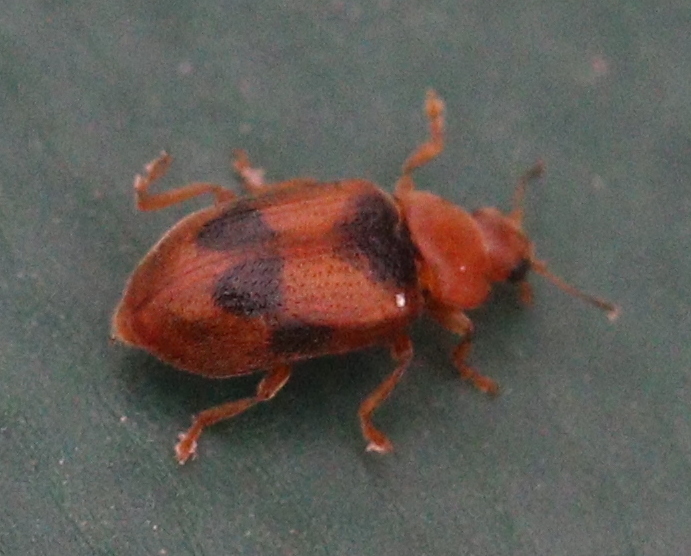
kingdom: Animalia
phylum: Arthropoda
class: Insecta
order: Coleoptera
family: Coccinellidae
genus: Coccidula
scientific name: Coccidula scutellata
